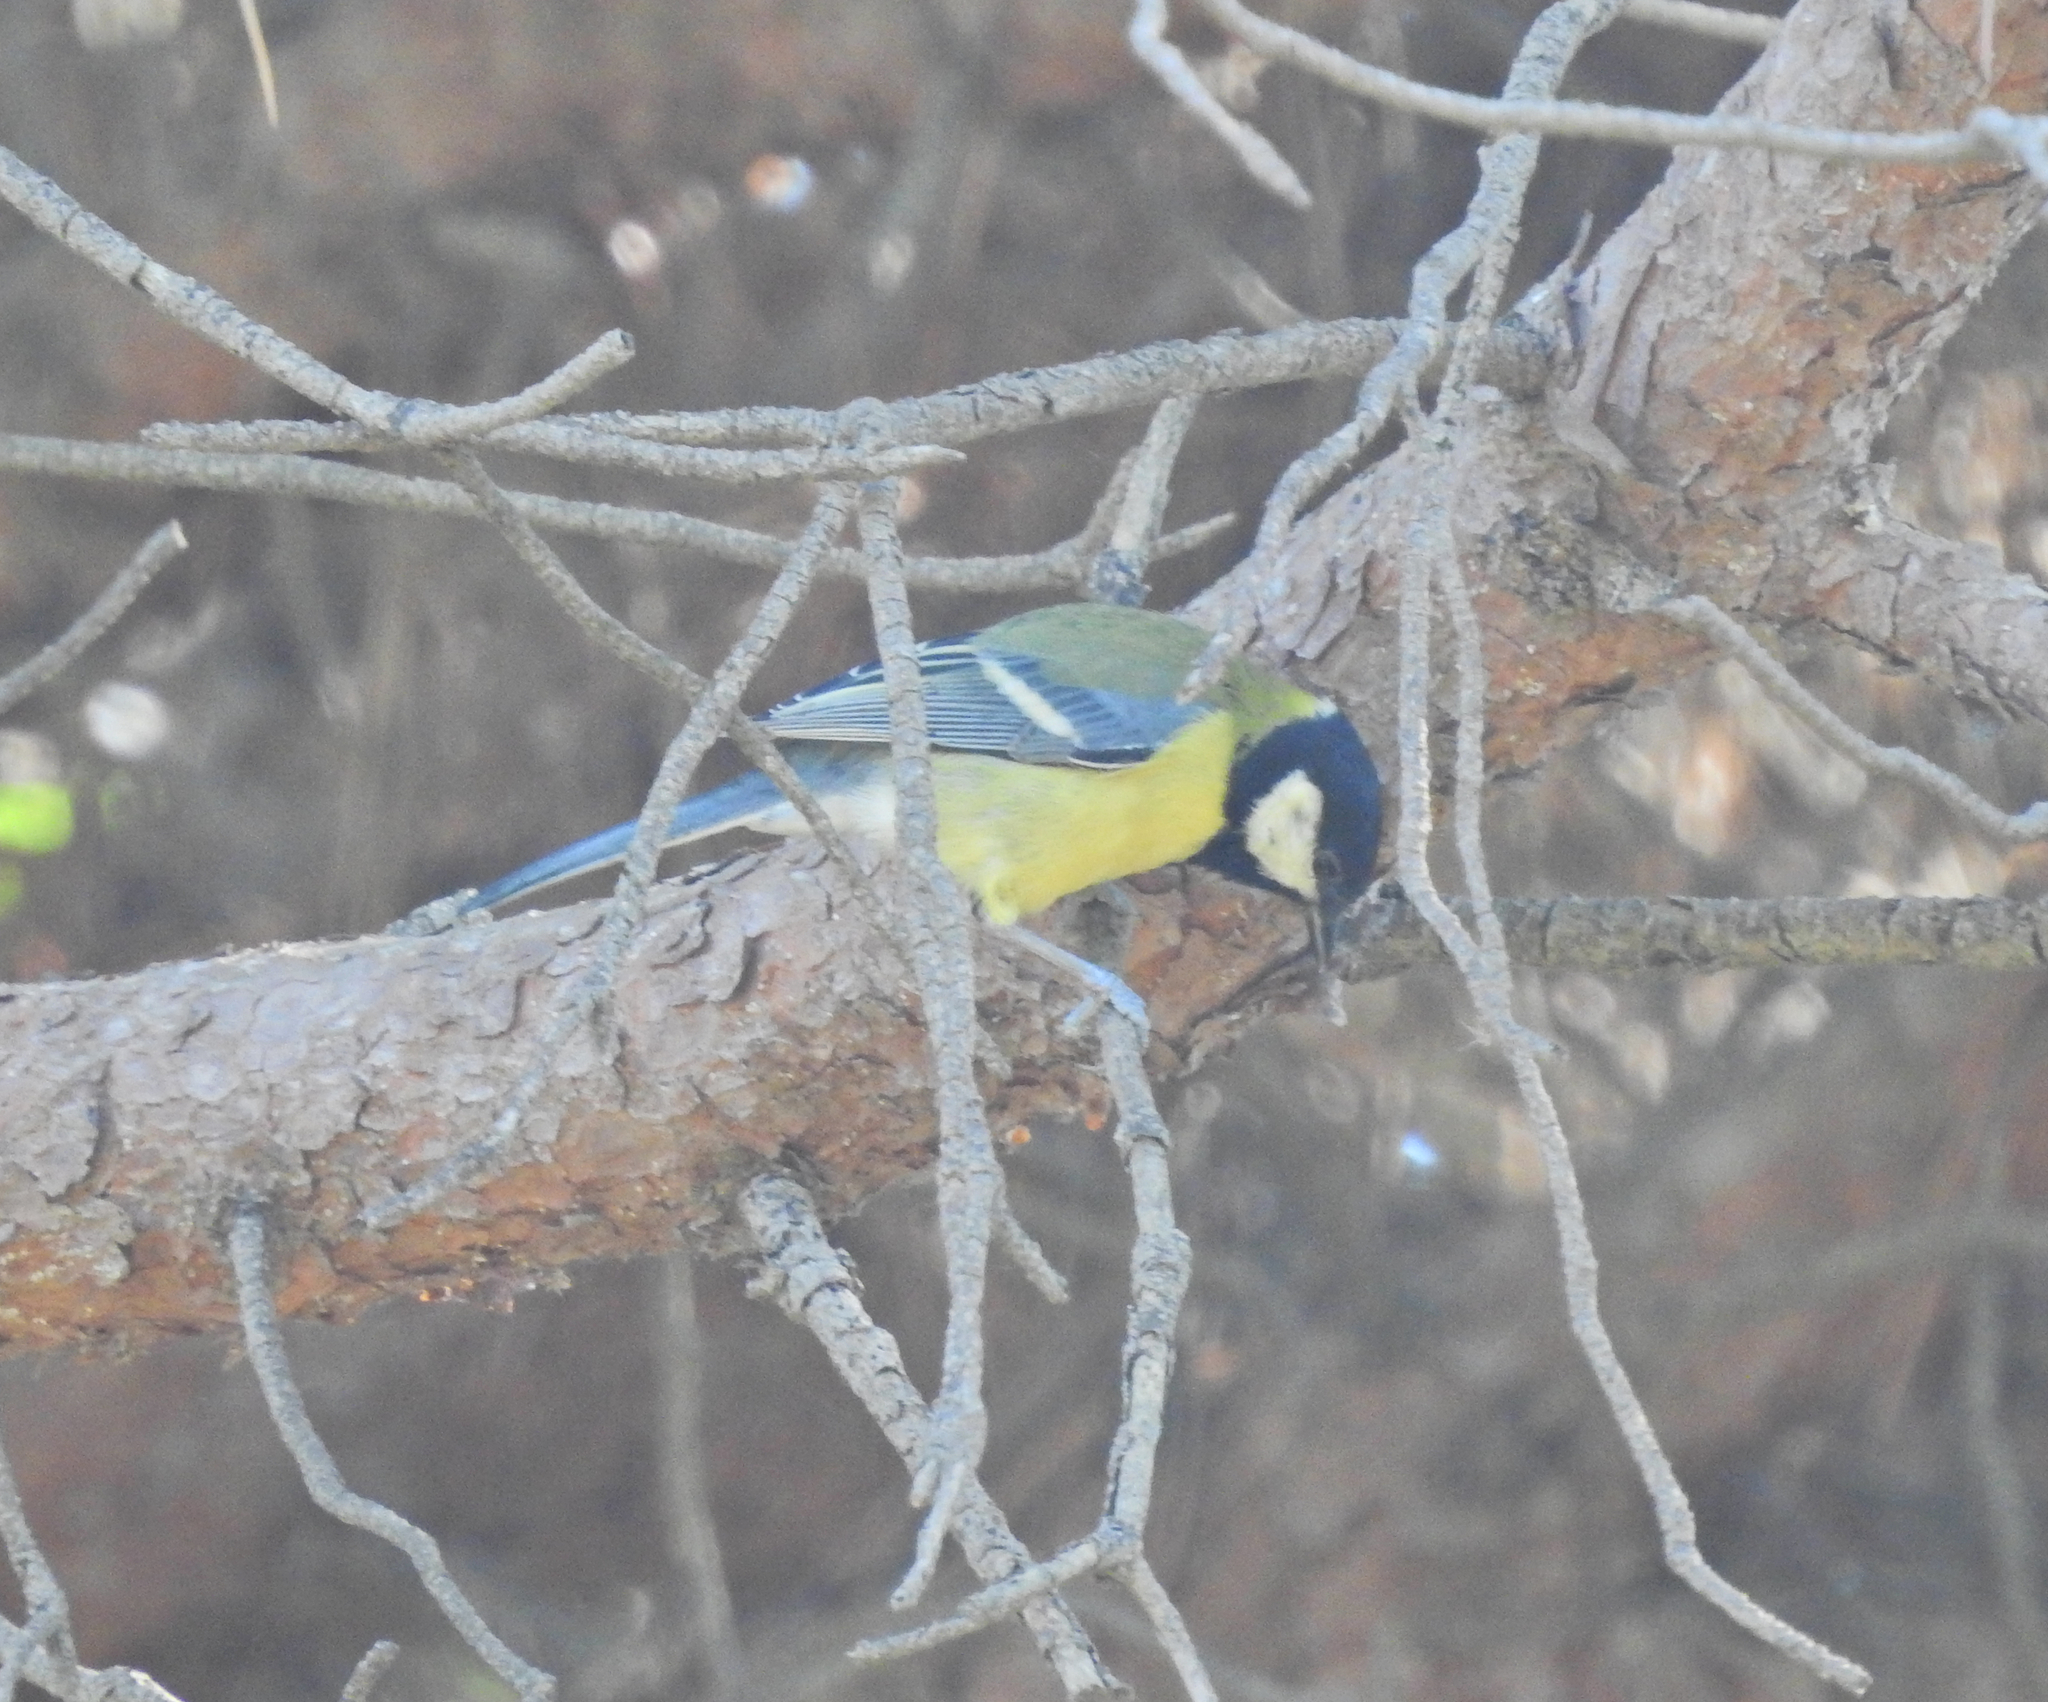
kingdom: Animalia
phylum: Chordata
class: Aves
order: Passeriformes
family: Paridae
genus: Parus
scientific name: Parus major
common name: Great tit
